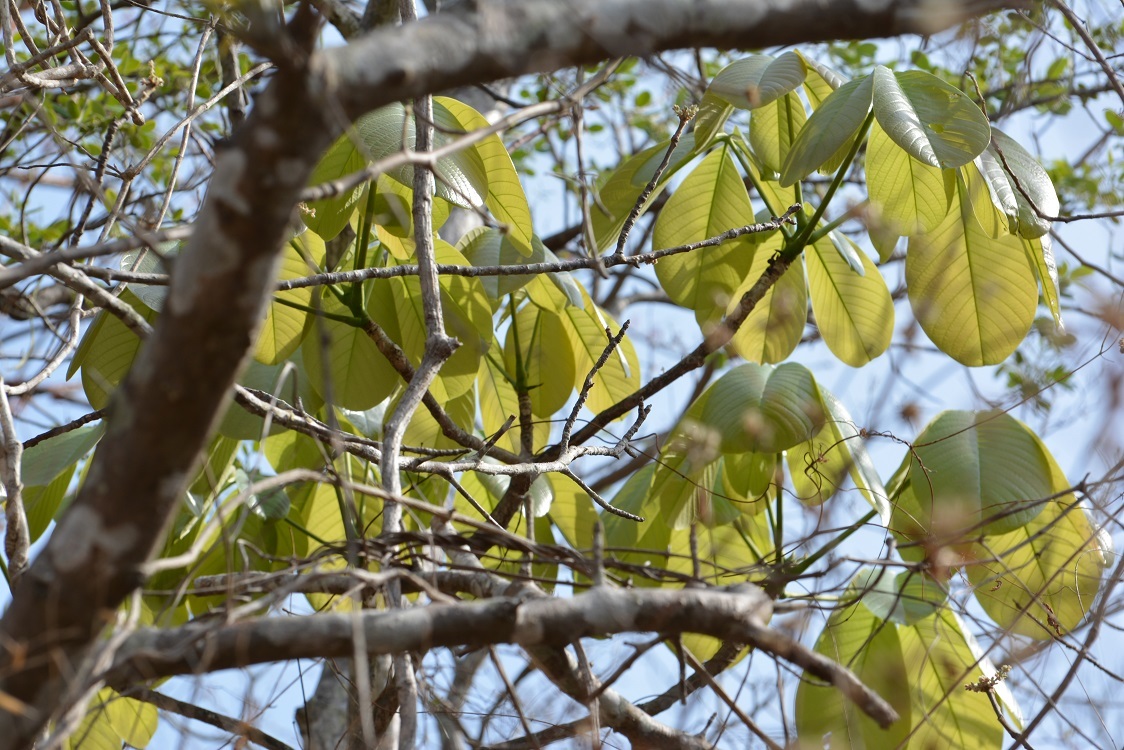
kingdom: Plantae
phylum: Tracheophyta
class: Magnoliopsida
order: Malvales
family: Malvaceae
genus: Pseudobombax
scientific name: Pseudobombax ellipticum
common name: Shaving-brush-tree
